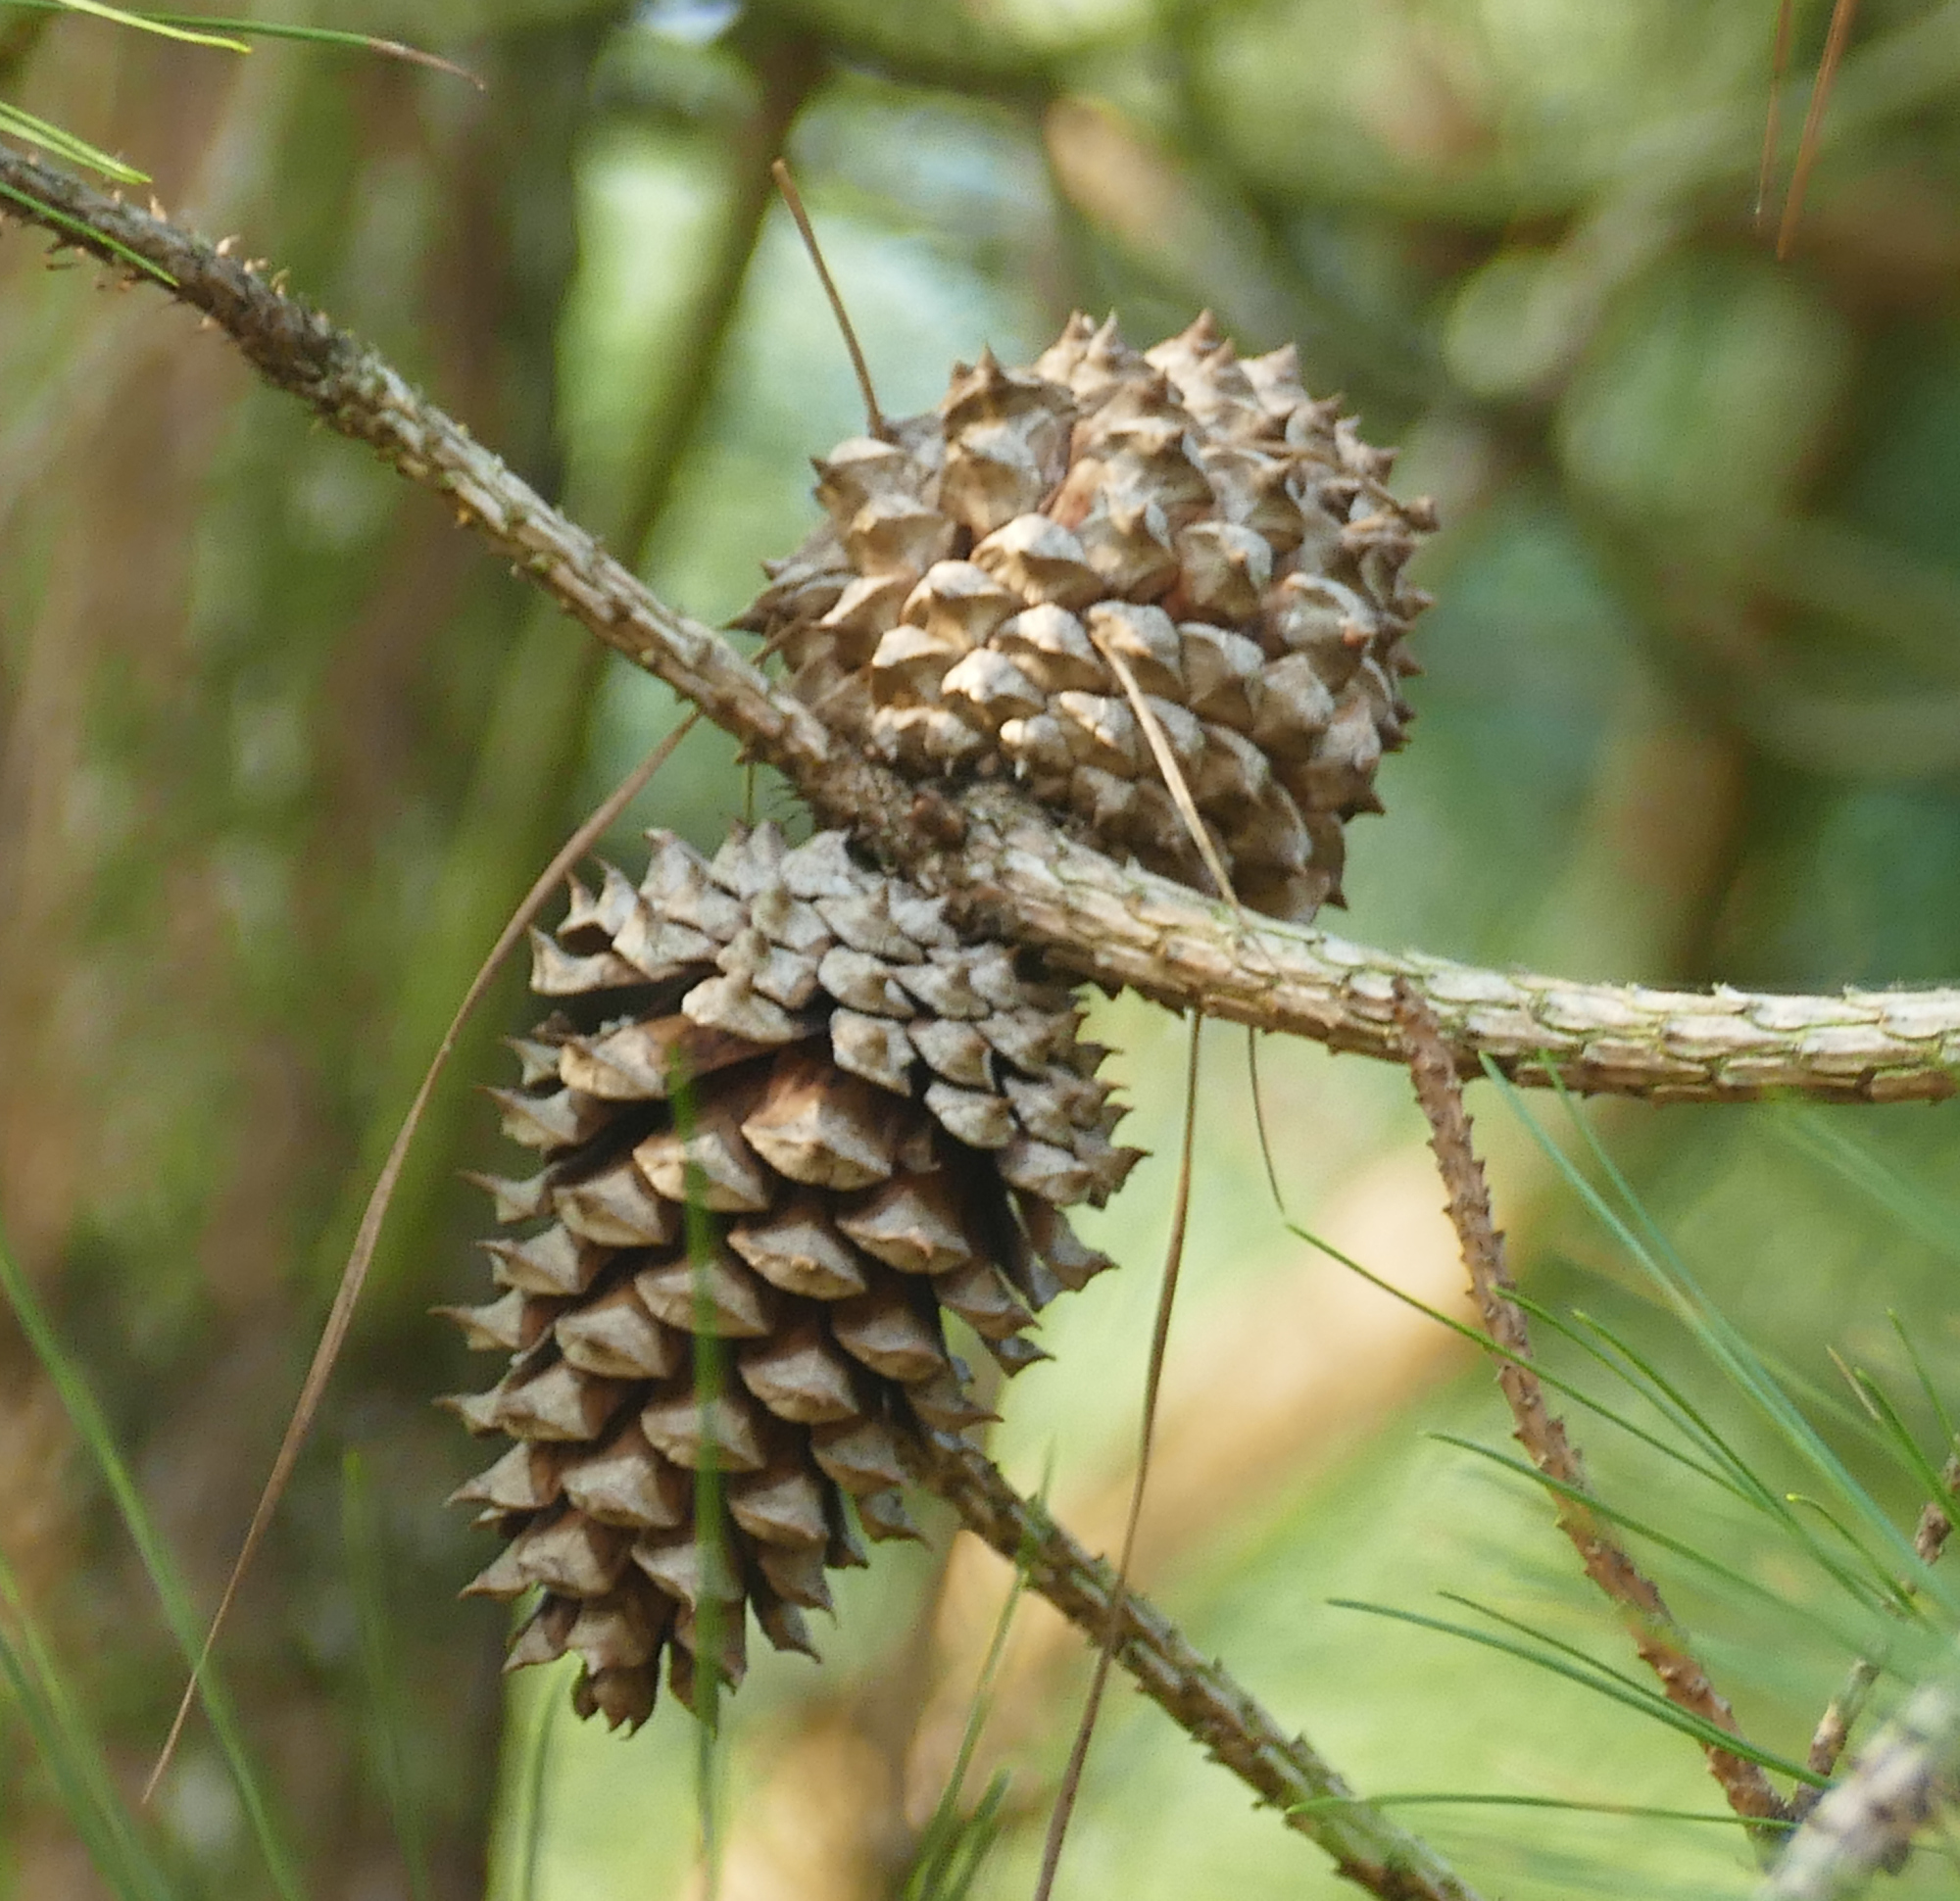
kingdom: Plantae
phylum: Tracheophyta
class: Pinopsida
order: Pinales
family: Pinaceae
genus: Pinus
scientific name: Pinus taeda
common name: Loblolly pine
